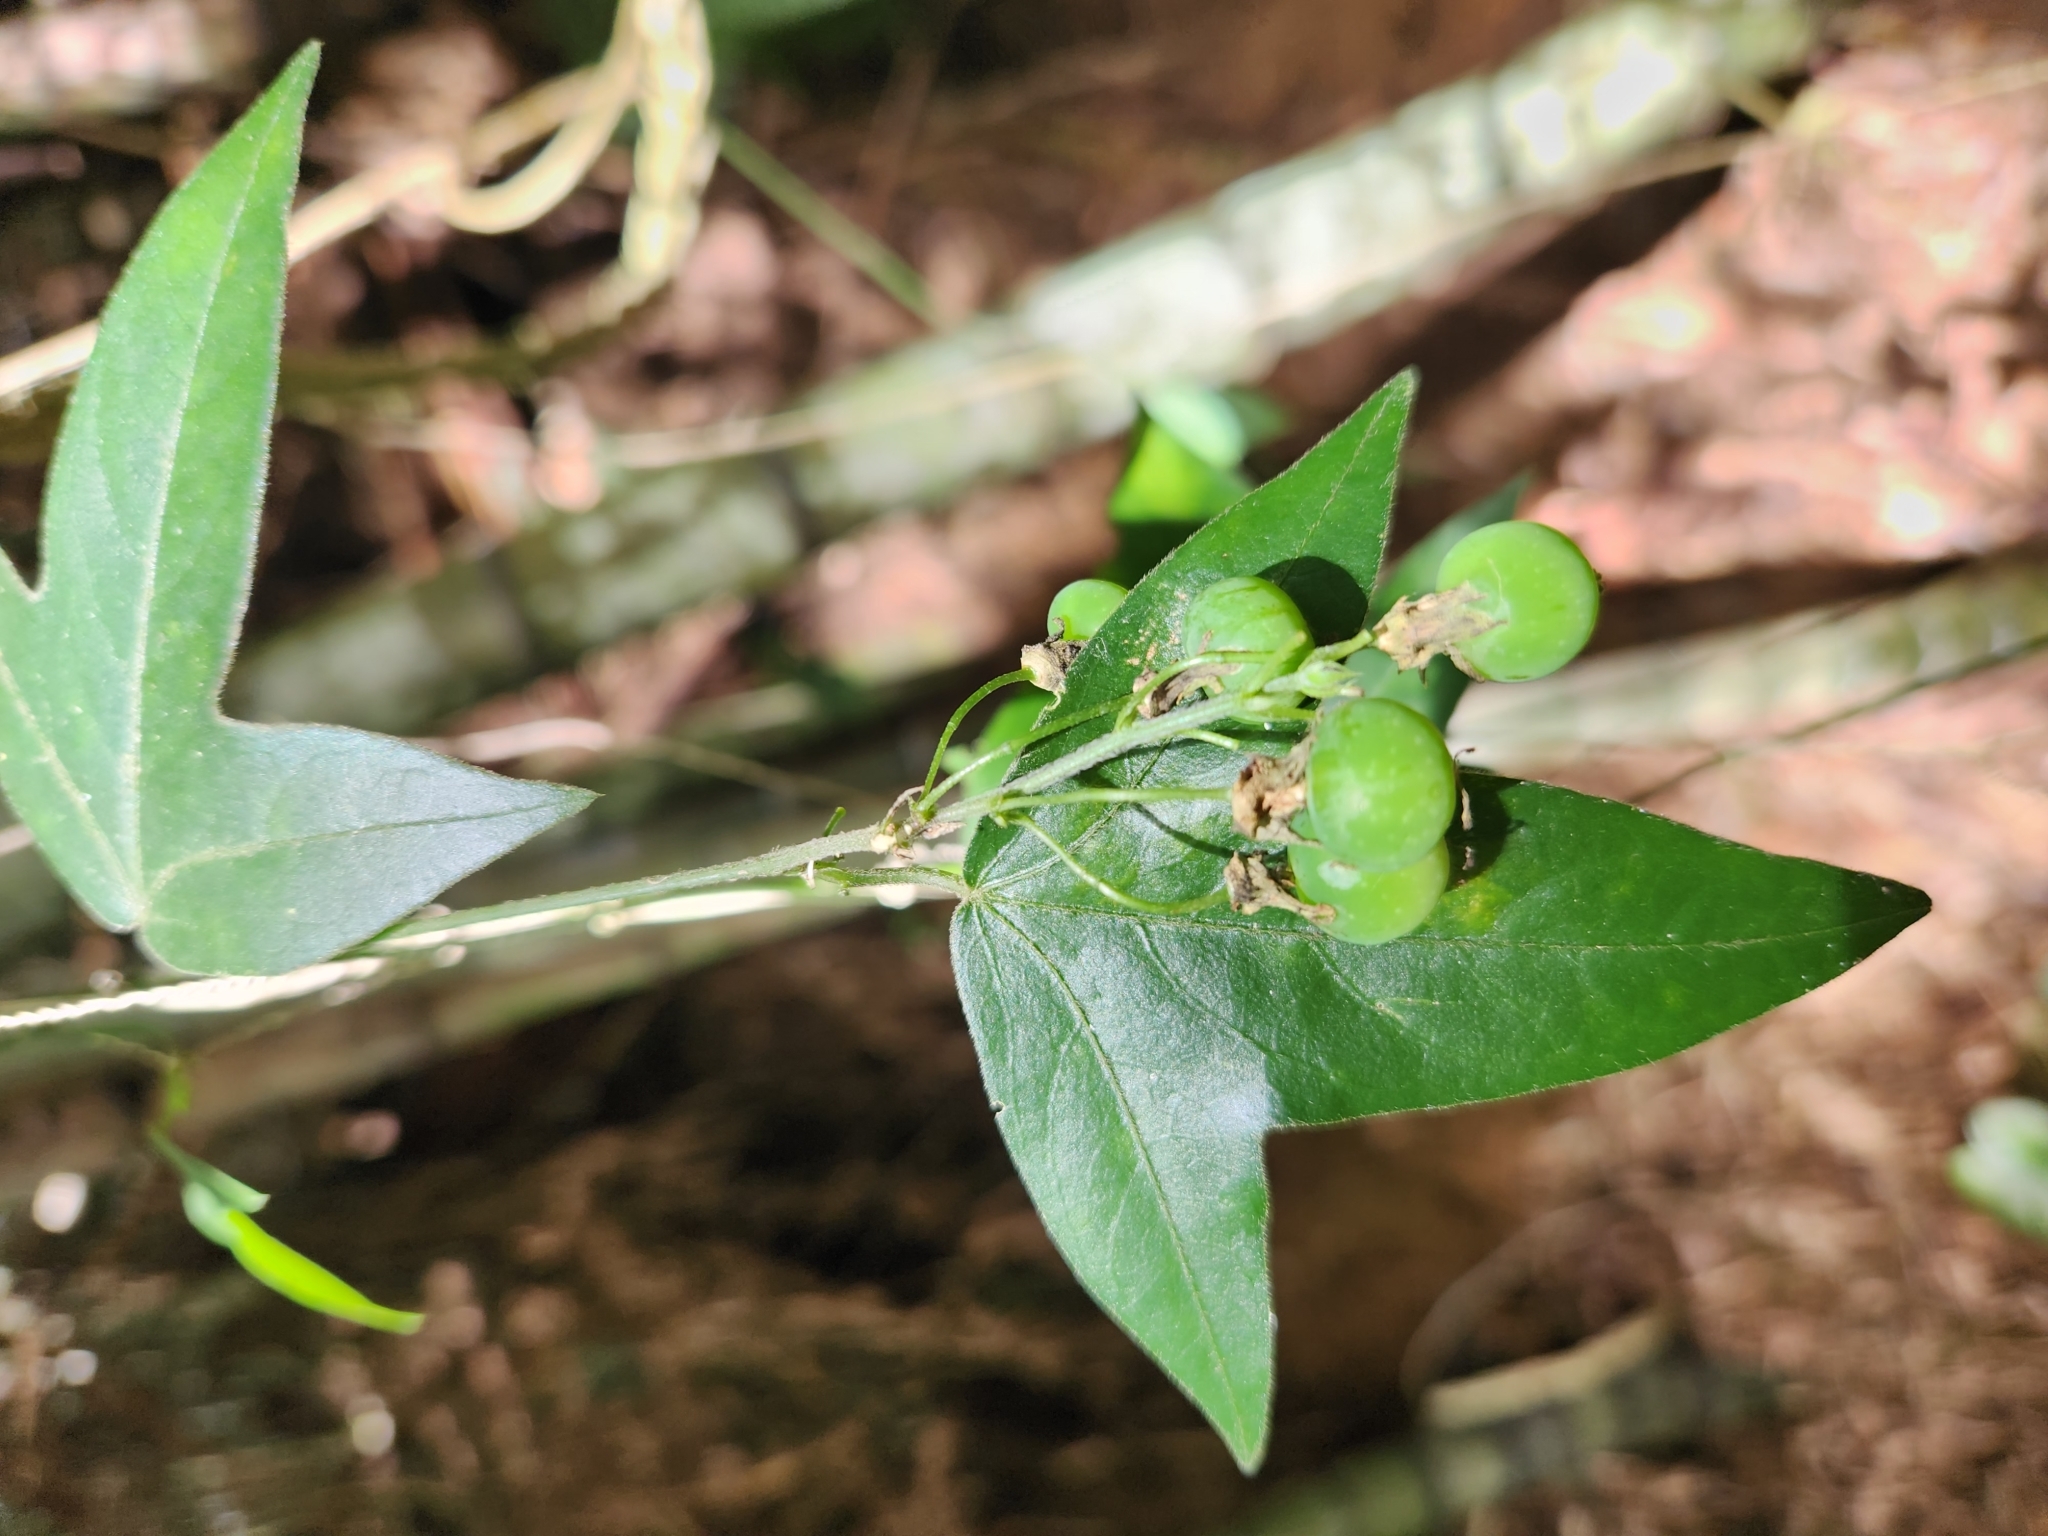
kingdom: Plantae
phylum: Tracheophyta
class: Magnoliopsida
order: Malpighiales
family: Passifloraceae
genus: Passiflora
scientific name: Passiflora suberosa
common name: Wild passionfruit
